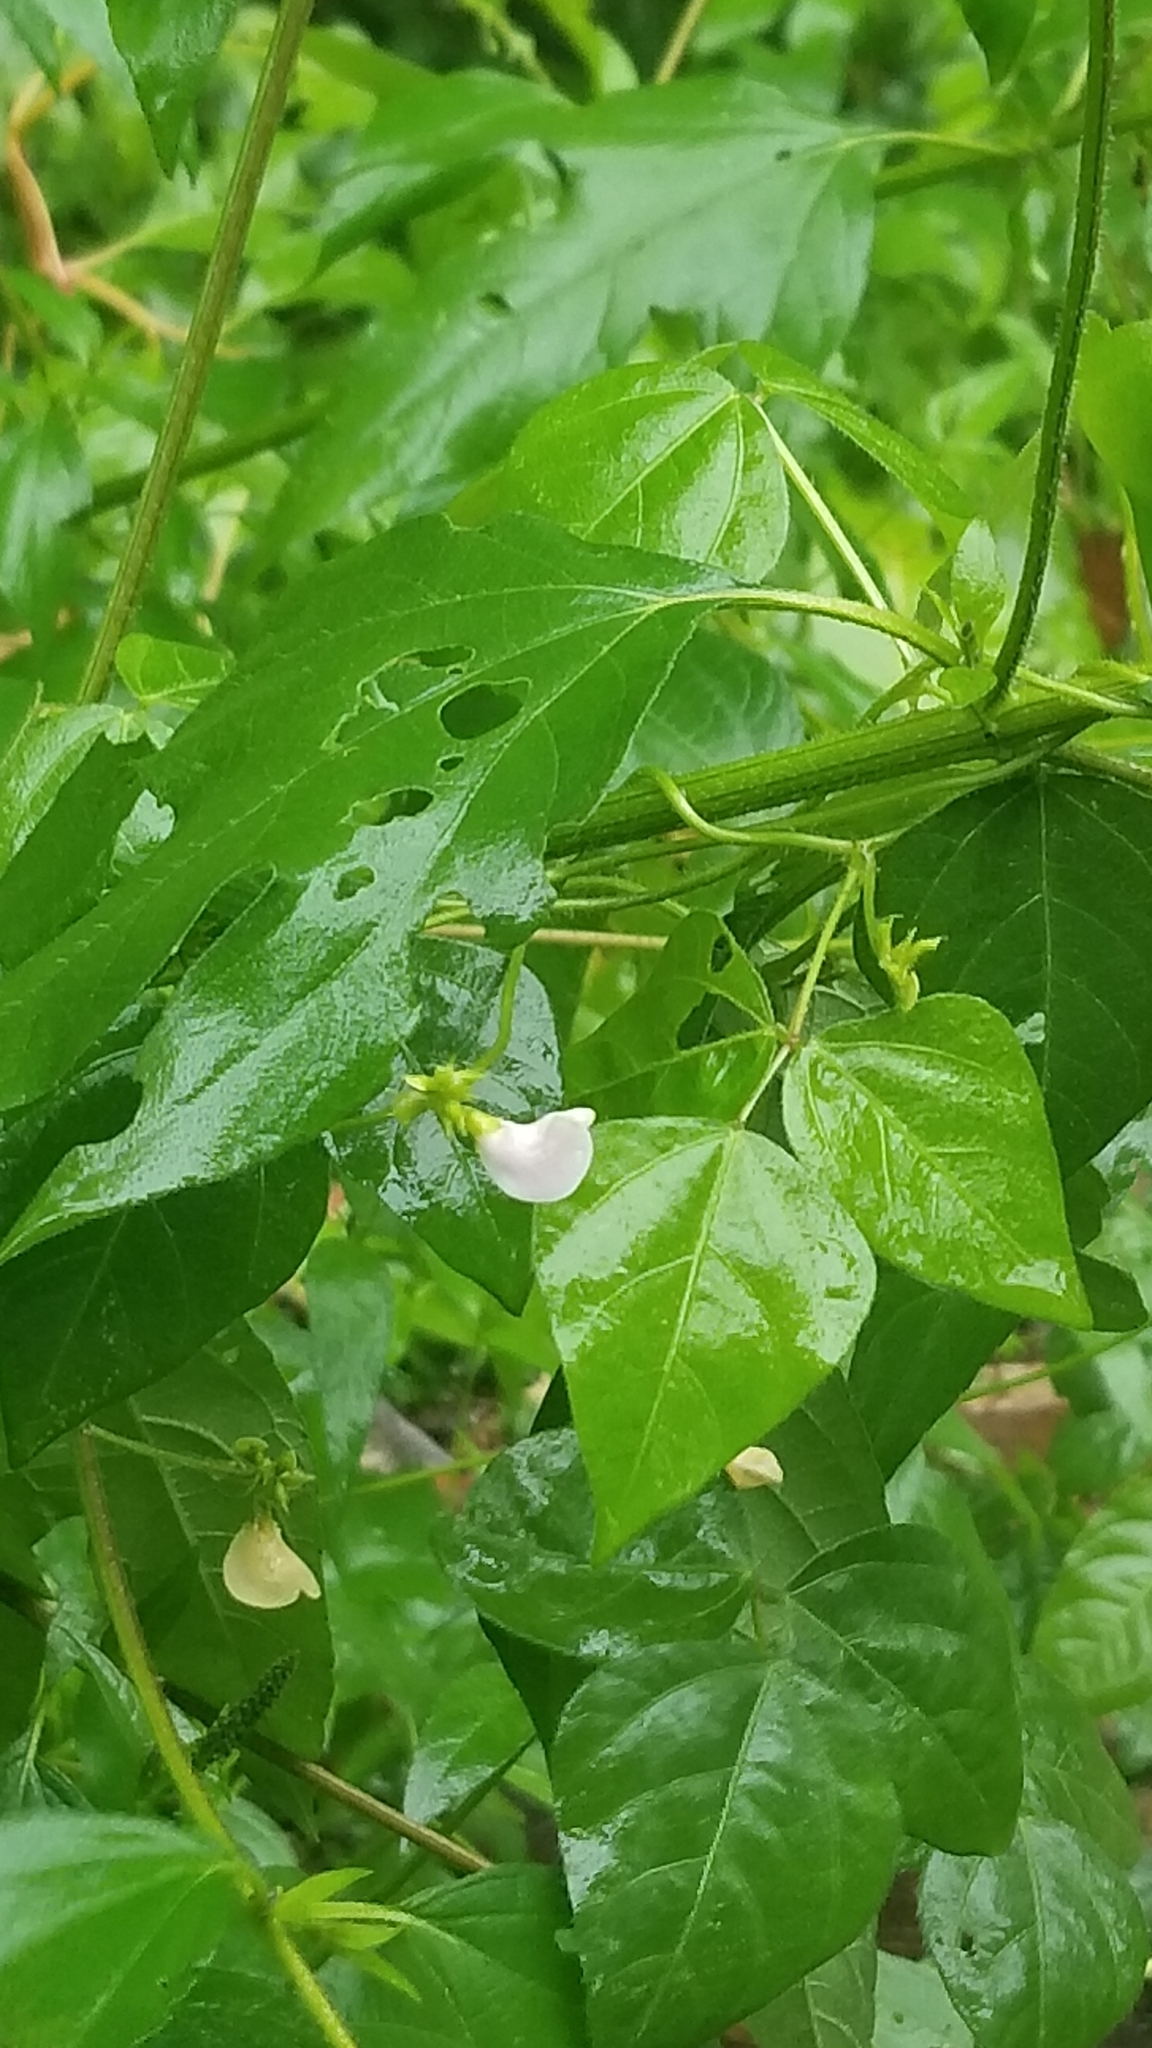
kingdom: Plantae
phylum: Tracheophyta
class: Magnoliopsida
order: Fabales
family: Fabaceae
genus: Strophostyles
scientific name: Strophostyles helvola
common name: Trailing wild bean
